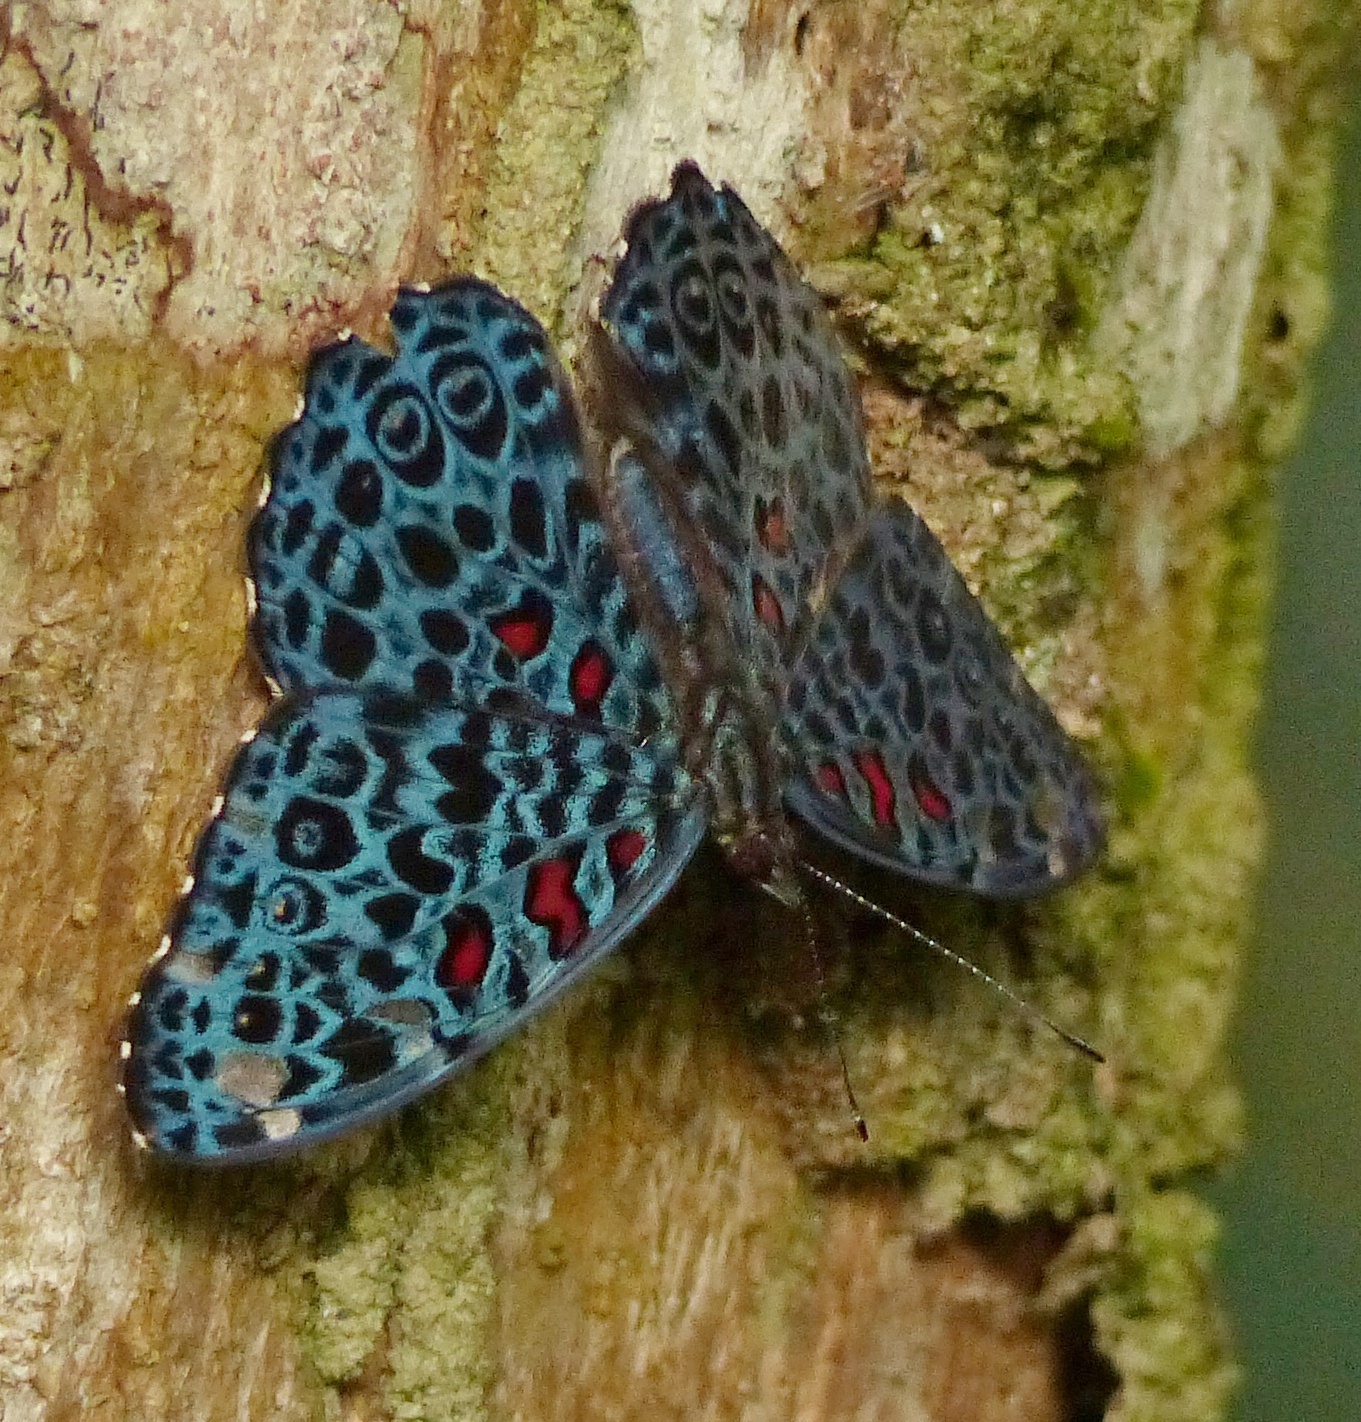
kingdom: Animalia
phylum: Arthropoda
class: Insecta
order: Lepidoptera
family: Nymphalidae
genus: Hamadryas
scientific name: Hamadryas chloe
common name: Amazon cracker
